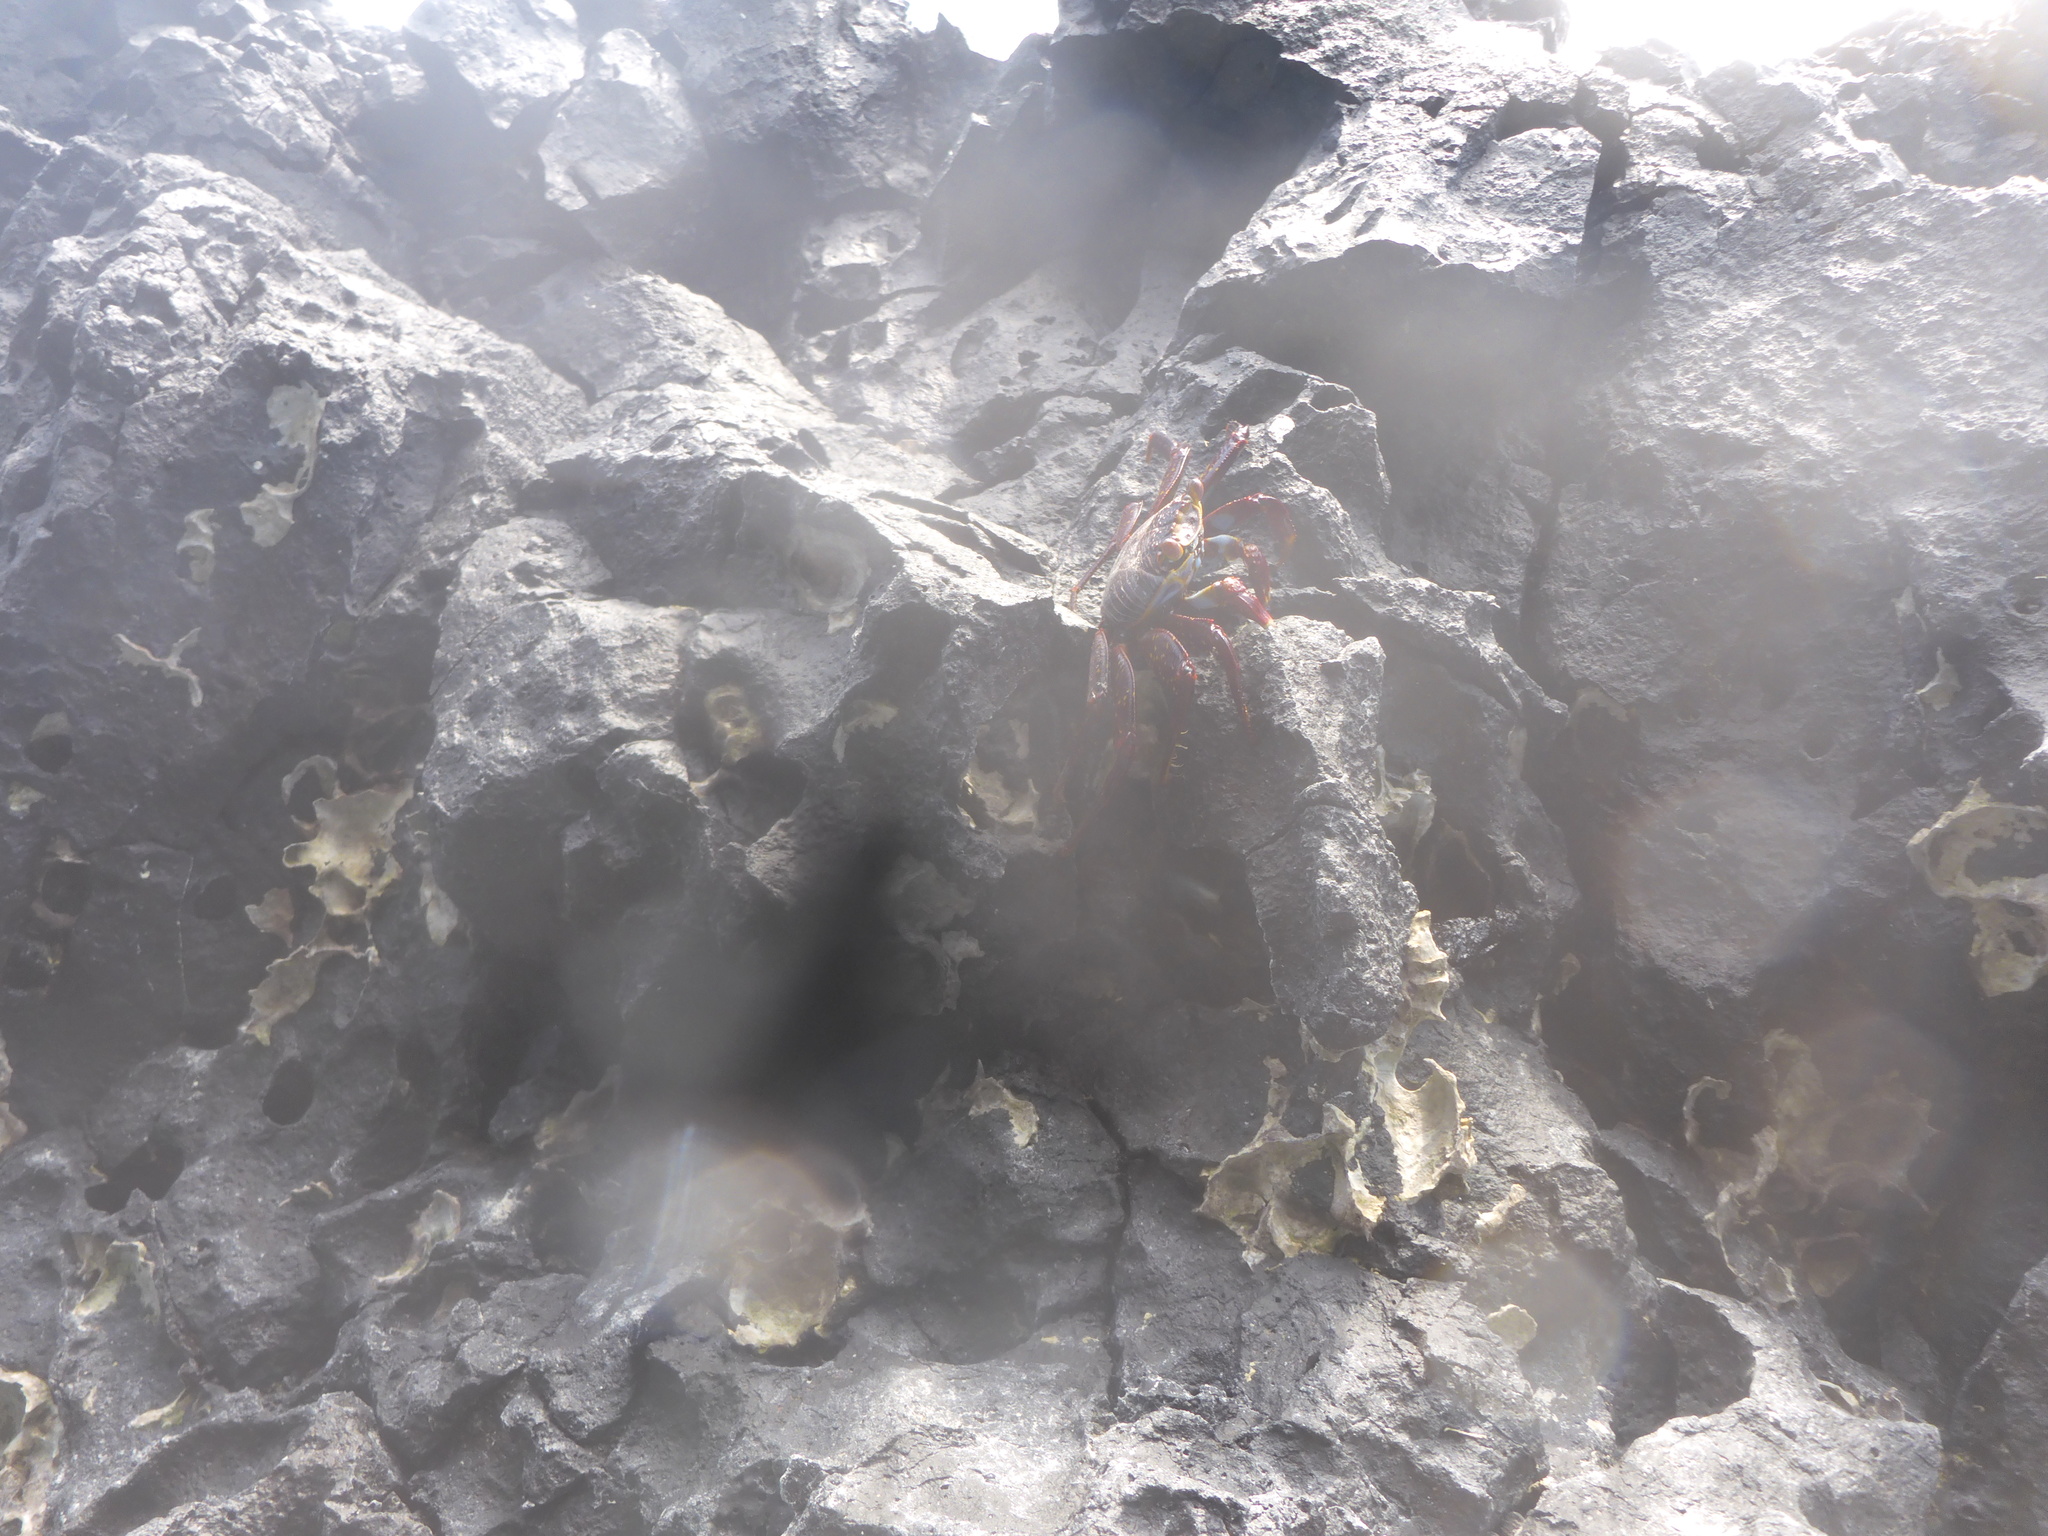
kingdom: Animalia
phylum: Arthropoda
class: Malacostraca
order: Decapoda
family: Grapsidae
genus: Grapsus
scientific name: Grapsus grapsus
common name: Sally lightfoot
